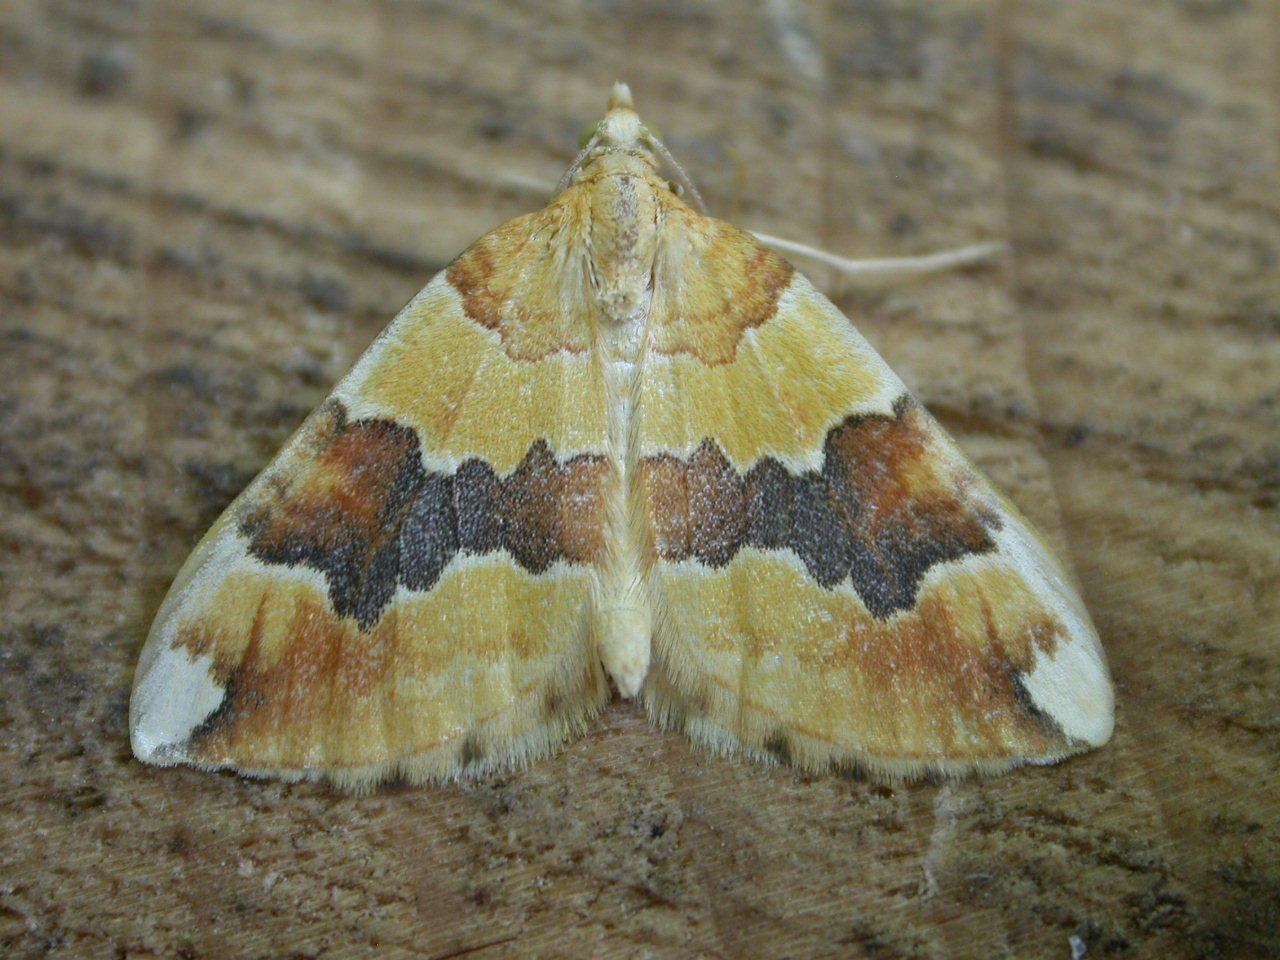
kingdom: Animalia
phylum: Arthropoda
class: Insecta
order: Lepidoptera
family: Geometridae
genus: Cidaria
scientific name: Cidaria fulvata
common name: Barred yellow
